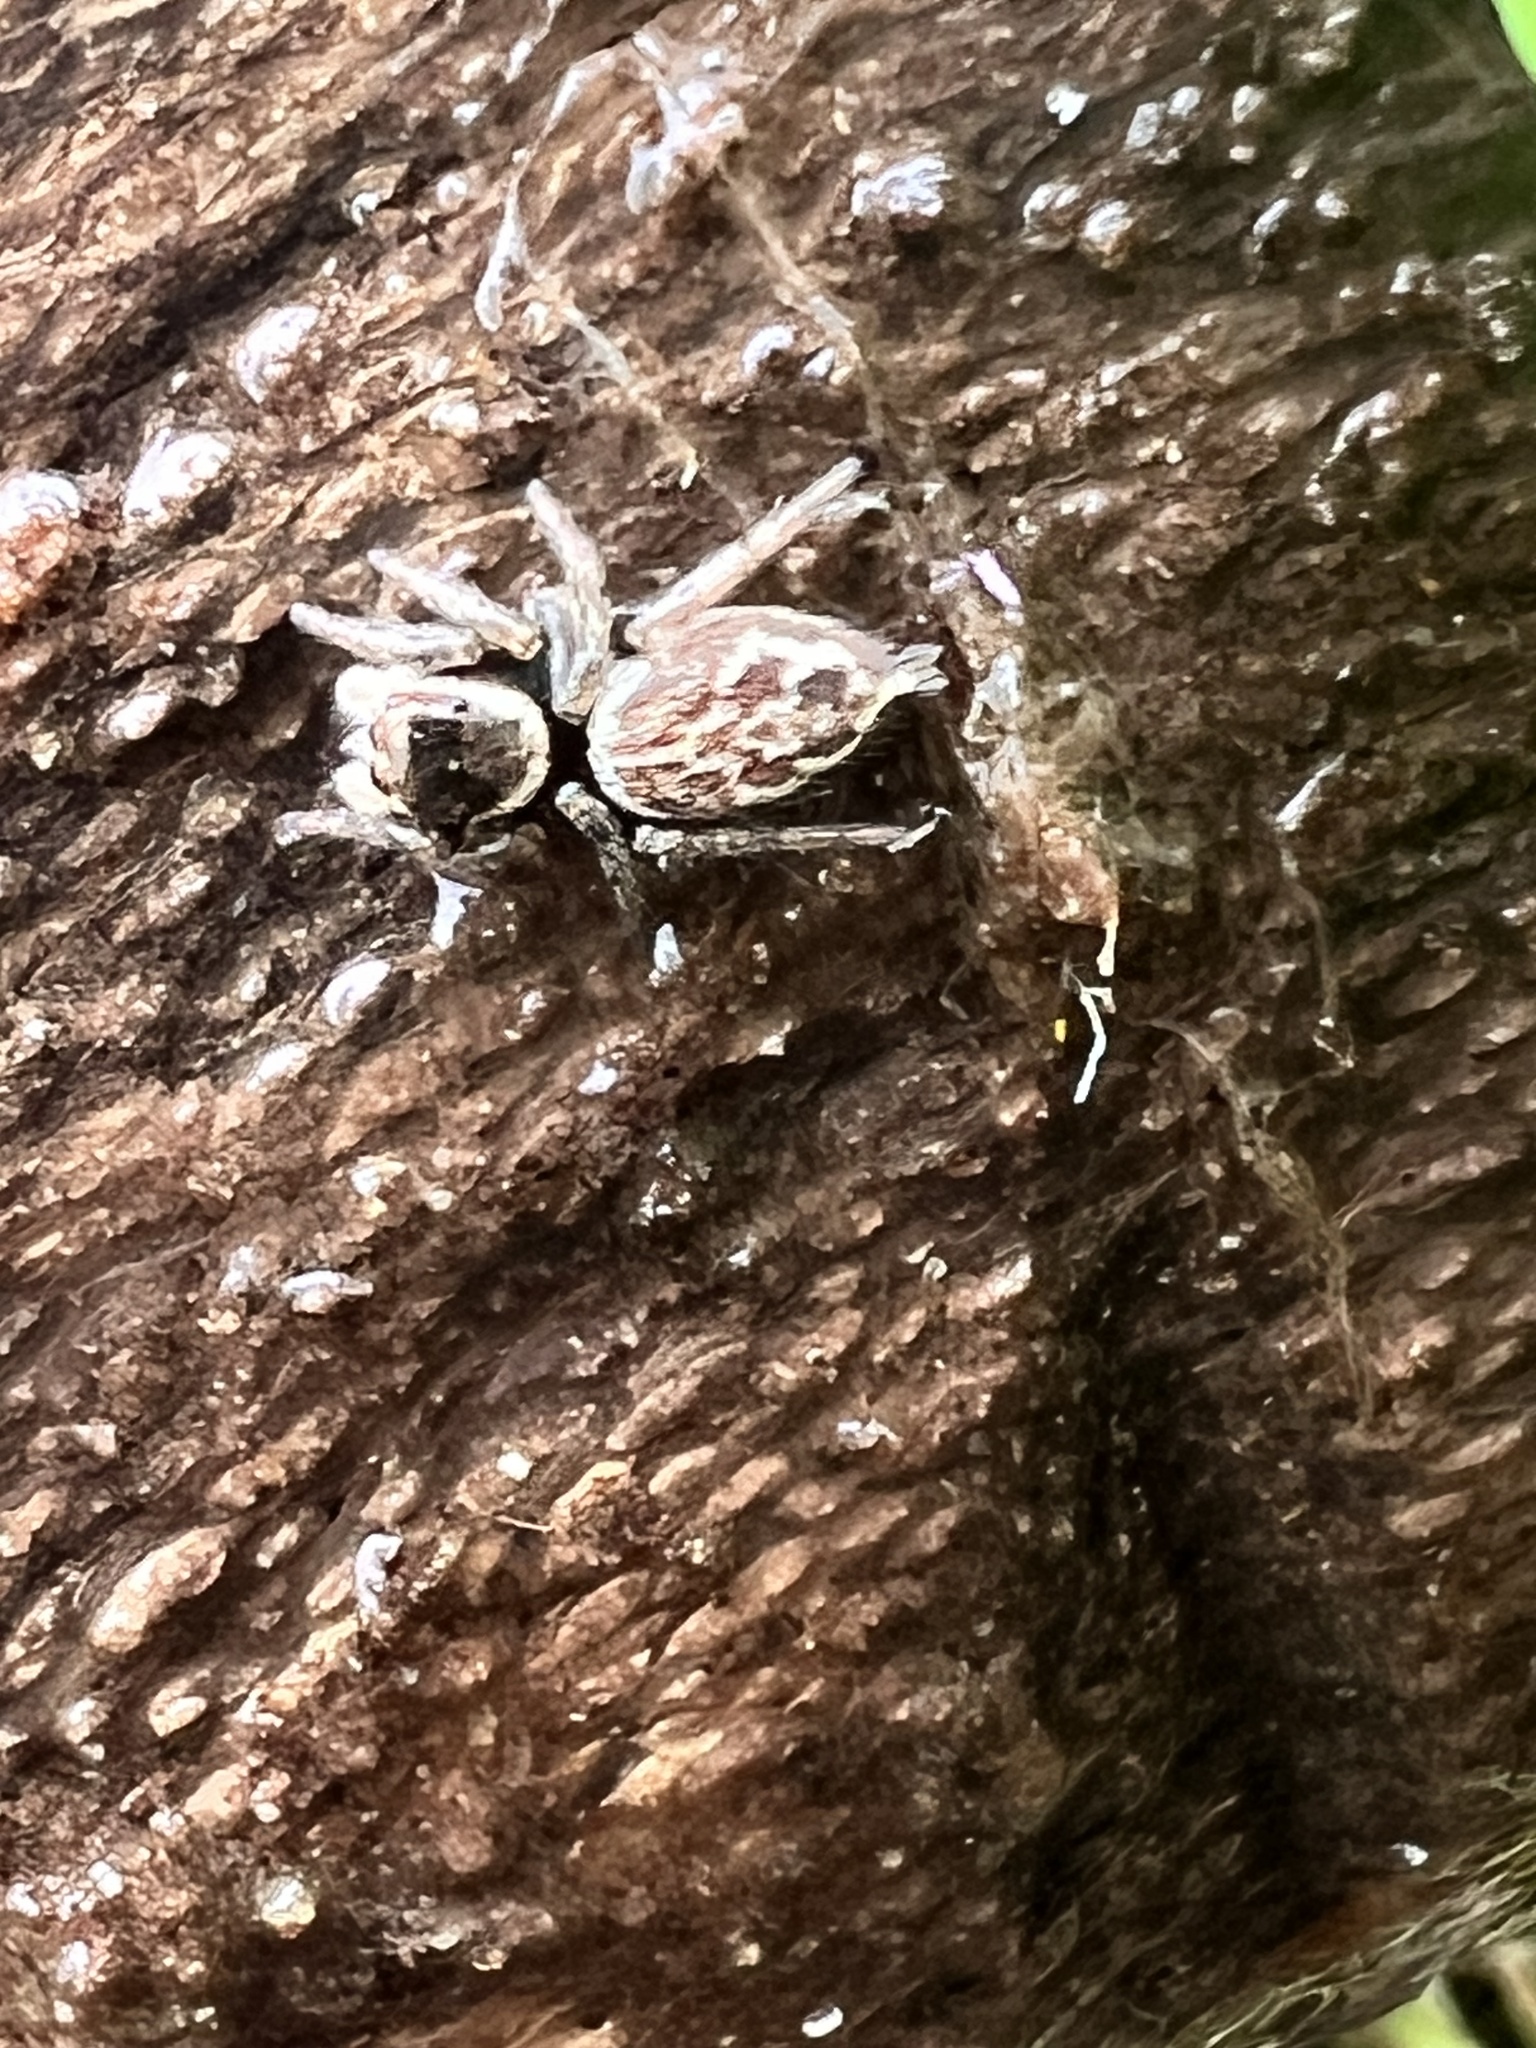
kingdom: Animalia
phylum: Arthropoda
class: Arachnida
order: Araneae
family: Salticidae
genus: Maratus
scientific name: Maratus griseus
